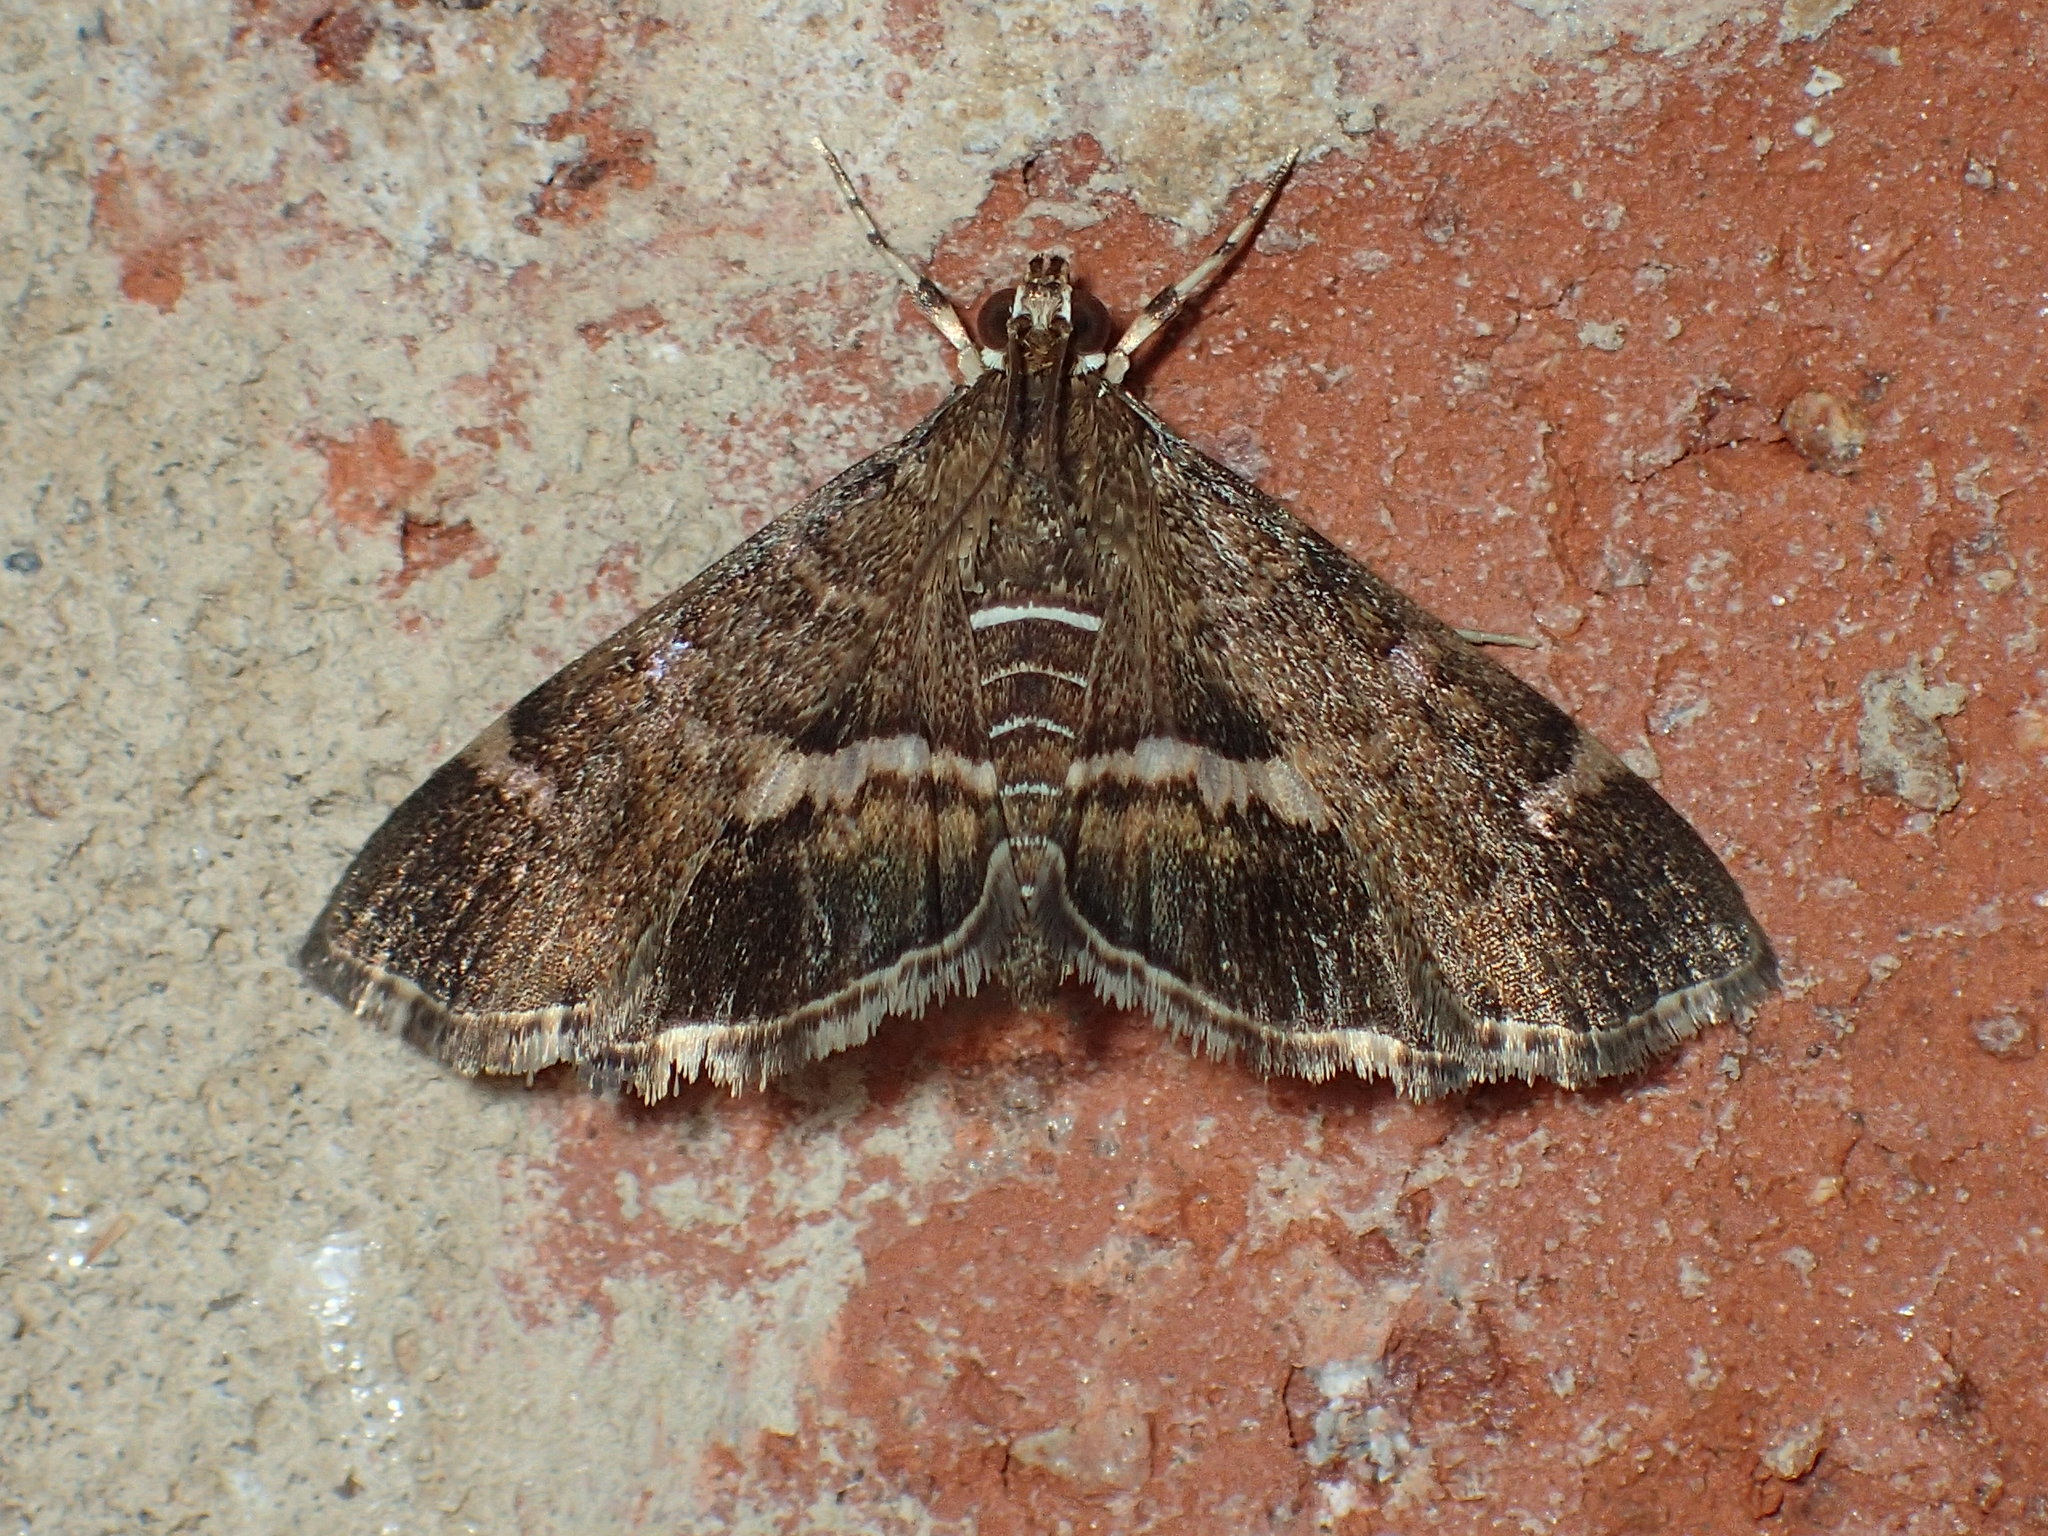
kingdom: Animalia
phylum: Arthropoda
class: Insecta
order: Lepidoptera
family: Crambidae
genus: Hymenia
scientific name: Hymenia perspectalis
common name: Spotted beet webworm
